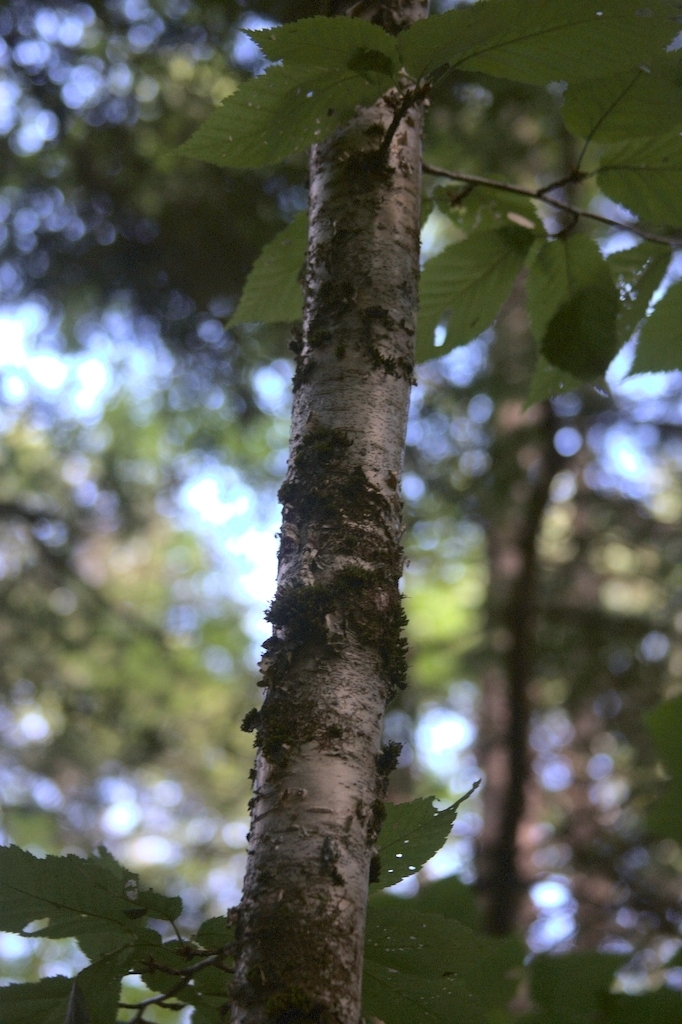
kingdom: Plantae
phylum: Bryophyta
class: Bryopsida
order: Orthotrichales
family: Orthotrichaceae
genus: Ulota
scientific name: Ulota crispa
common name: Crisped pincushion moss
